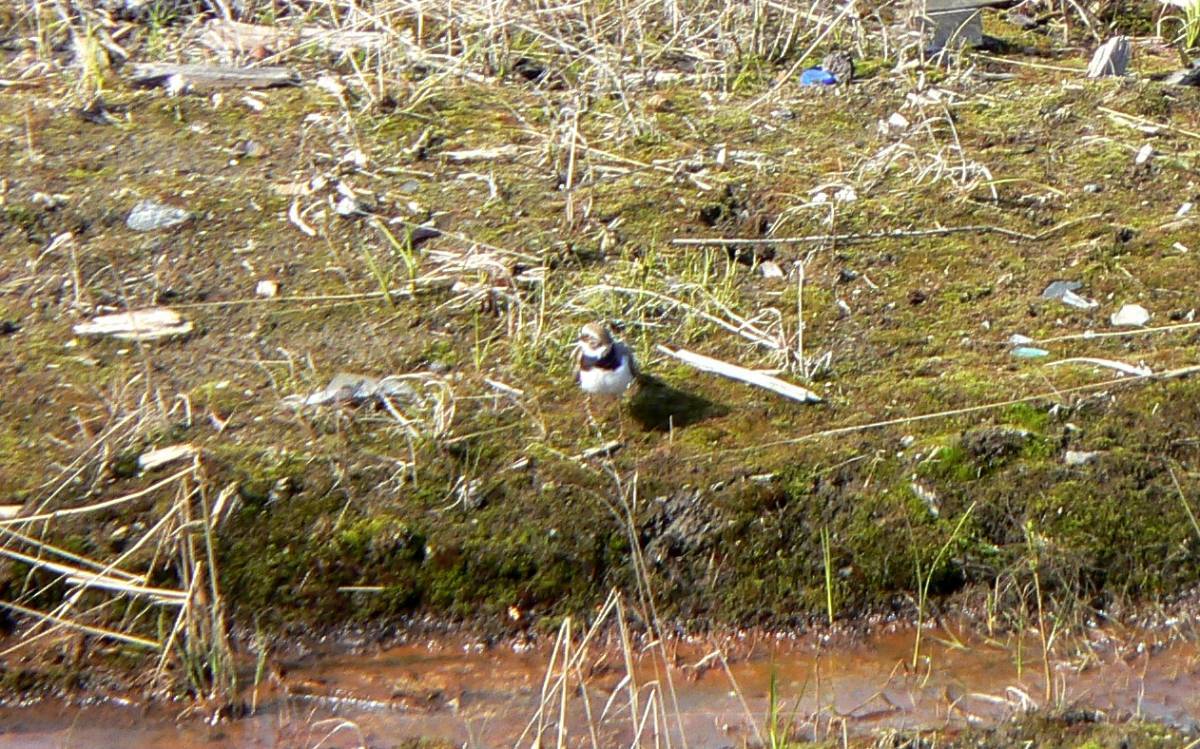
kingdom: Animalia
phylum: Chordata
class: Aves
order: Charadriiformes
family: Charadriidae
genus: Charadrius
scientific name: Charadrius dubius
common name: Little ringed plover
